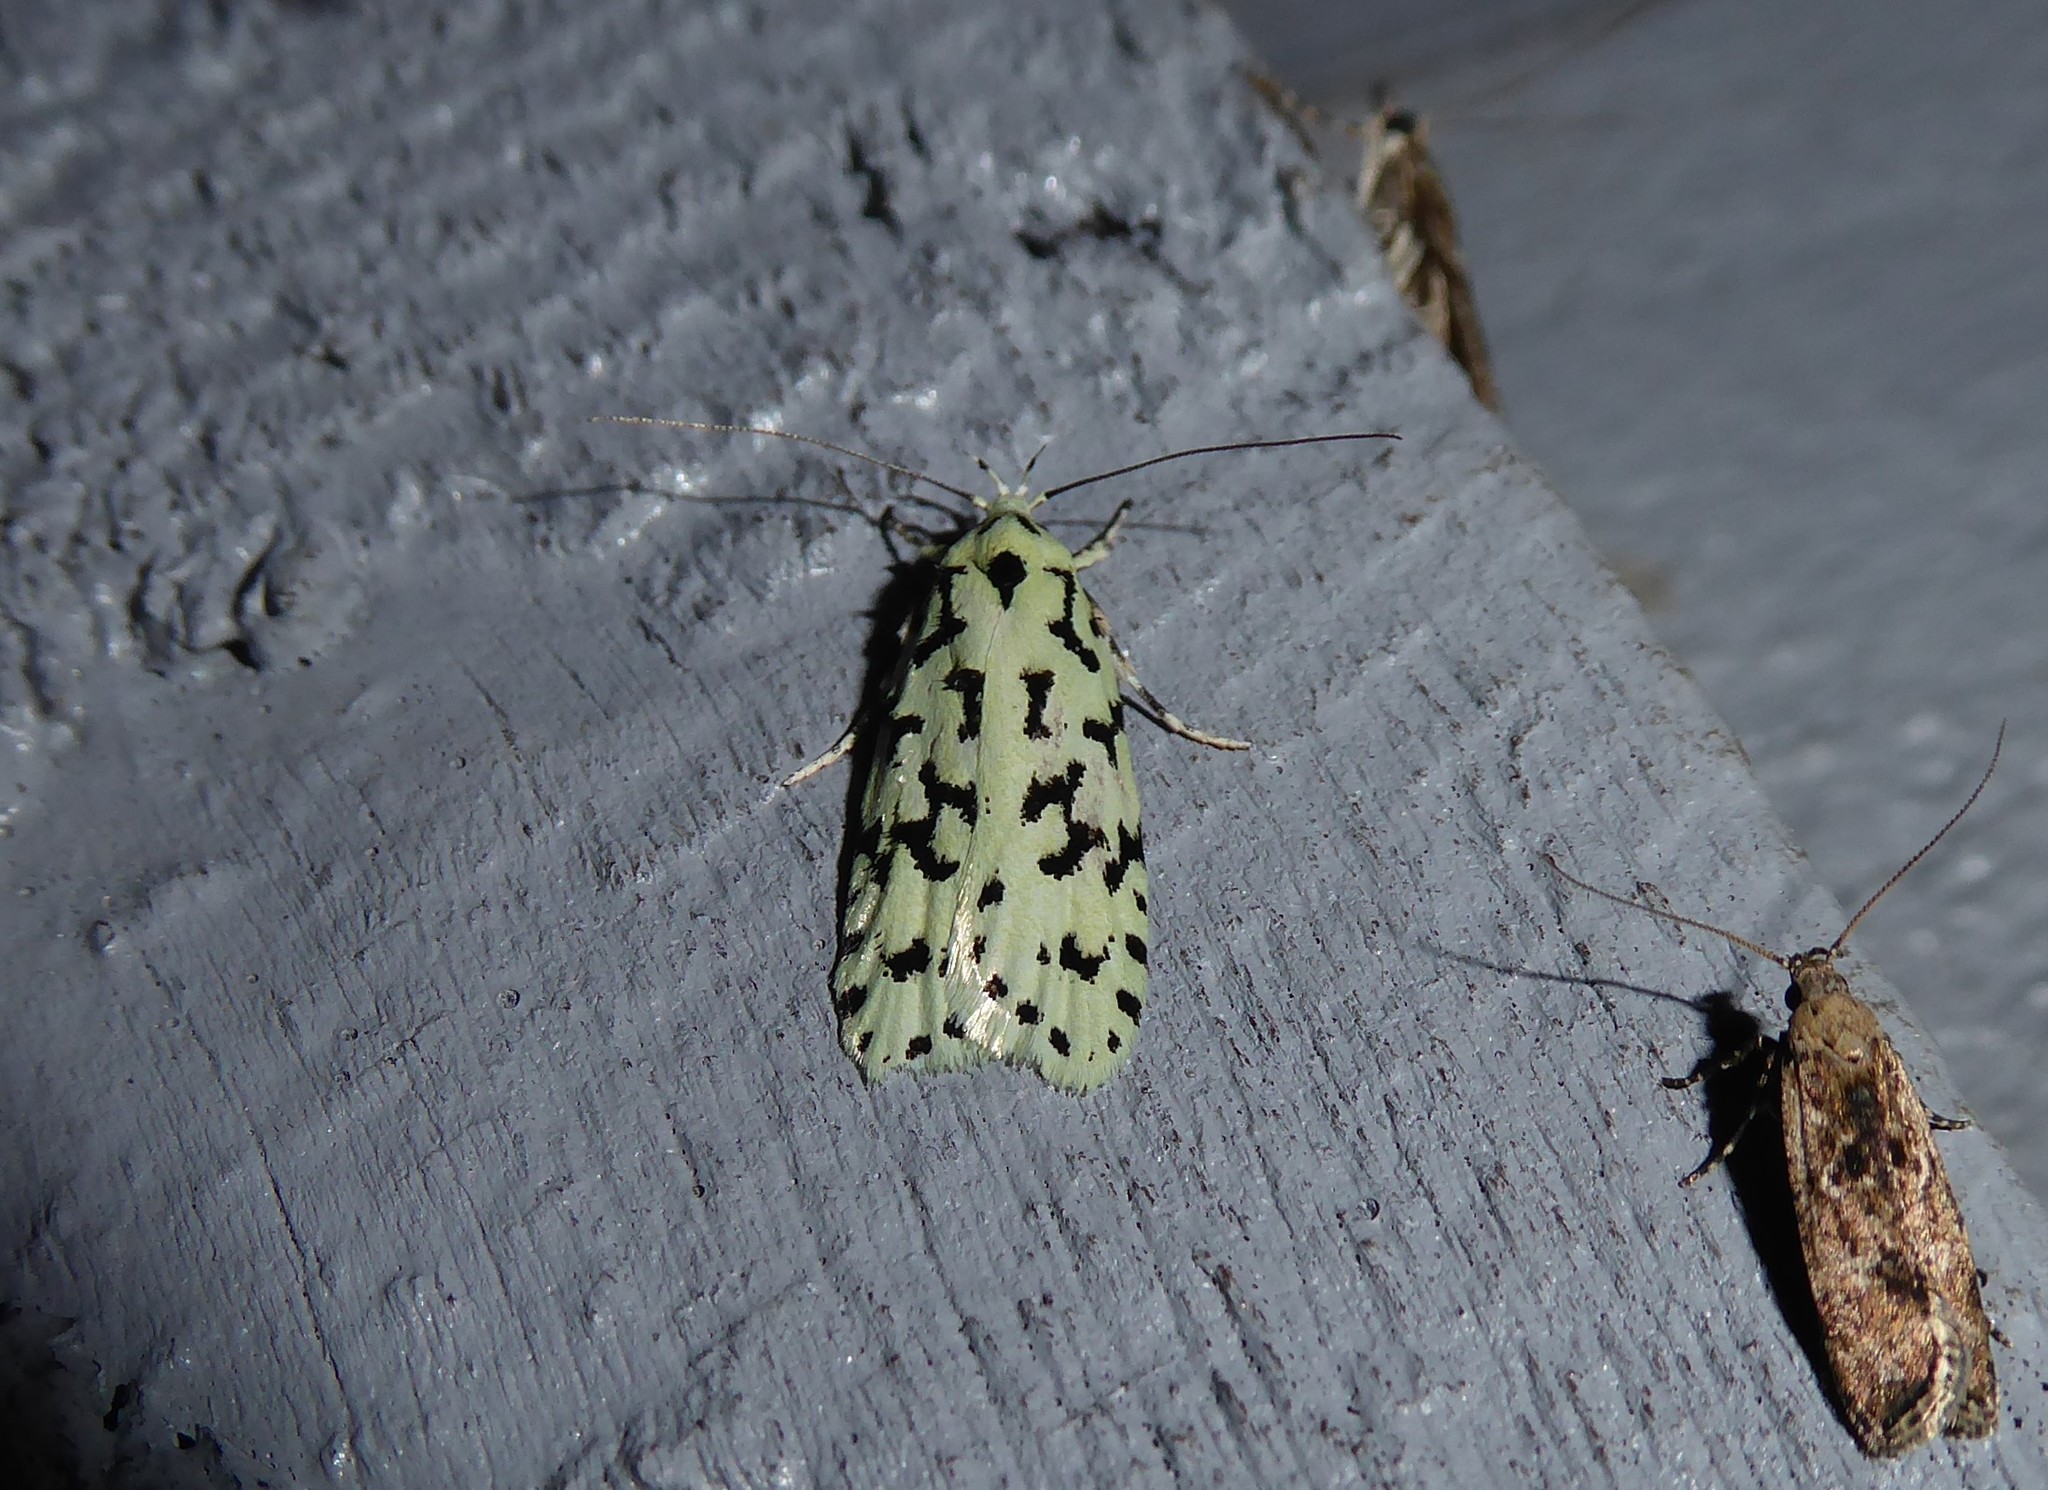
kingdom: Animalia
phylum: Arthropoda
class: Insecta
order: Lepidoptera
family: Oecophoridae
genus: Izatha
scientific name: Izatha huttoni
